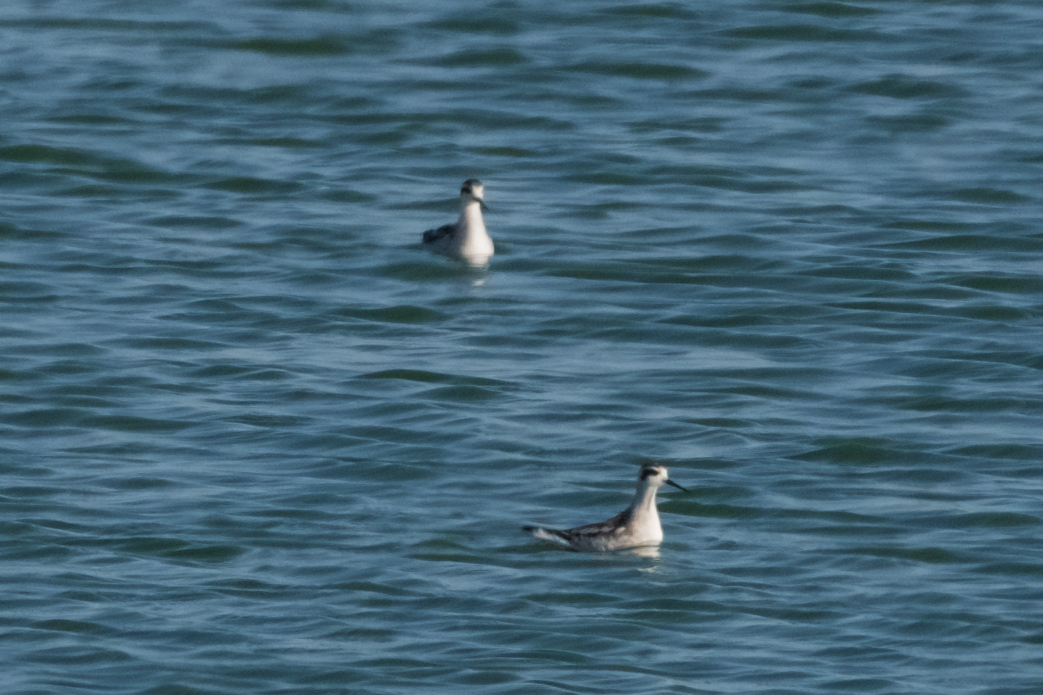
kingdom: Animalia
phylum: Chordata
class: Aves
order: Charadriiformes
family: Scolopacidae
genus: Phalaropus
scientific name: Phalaropus lobatus
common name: Red-necked phalarope
